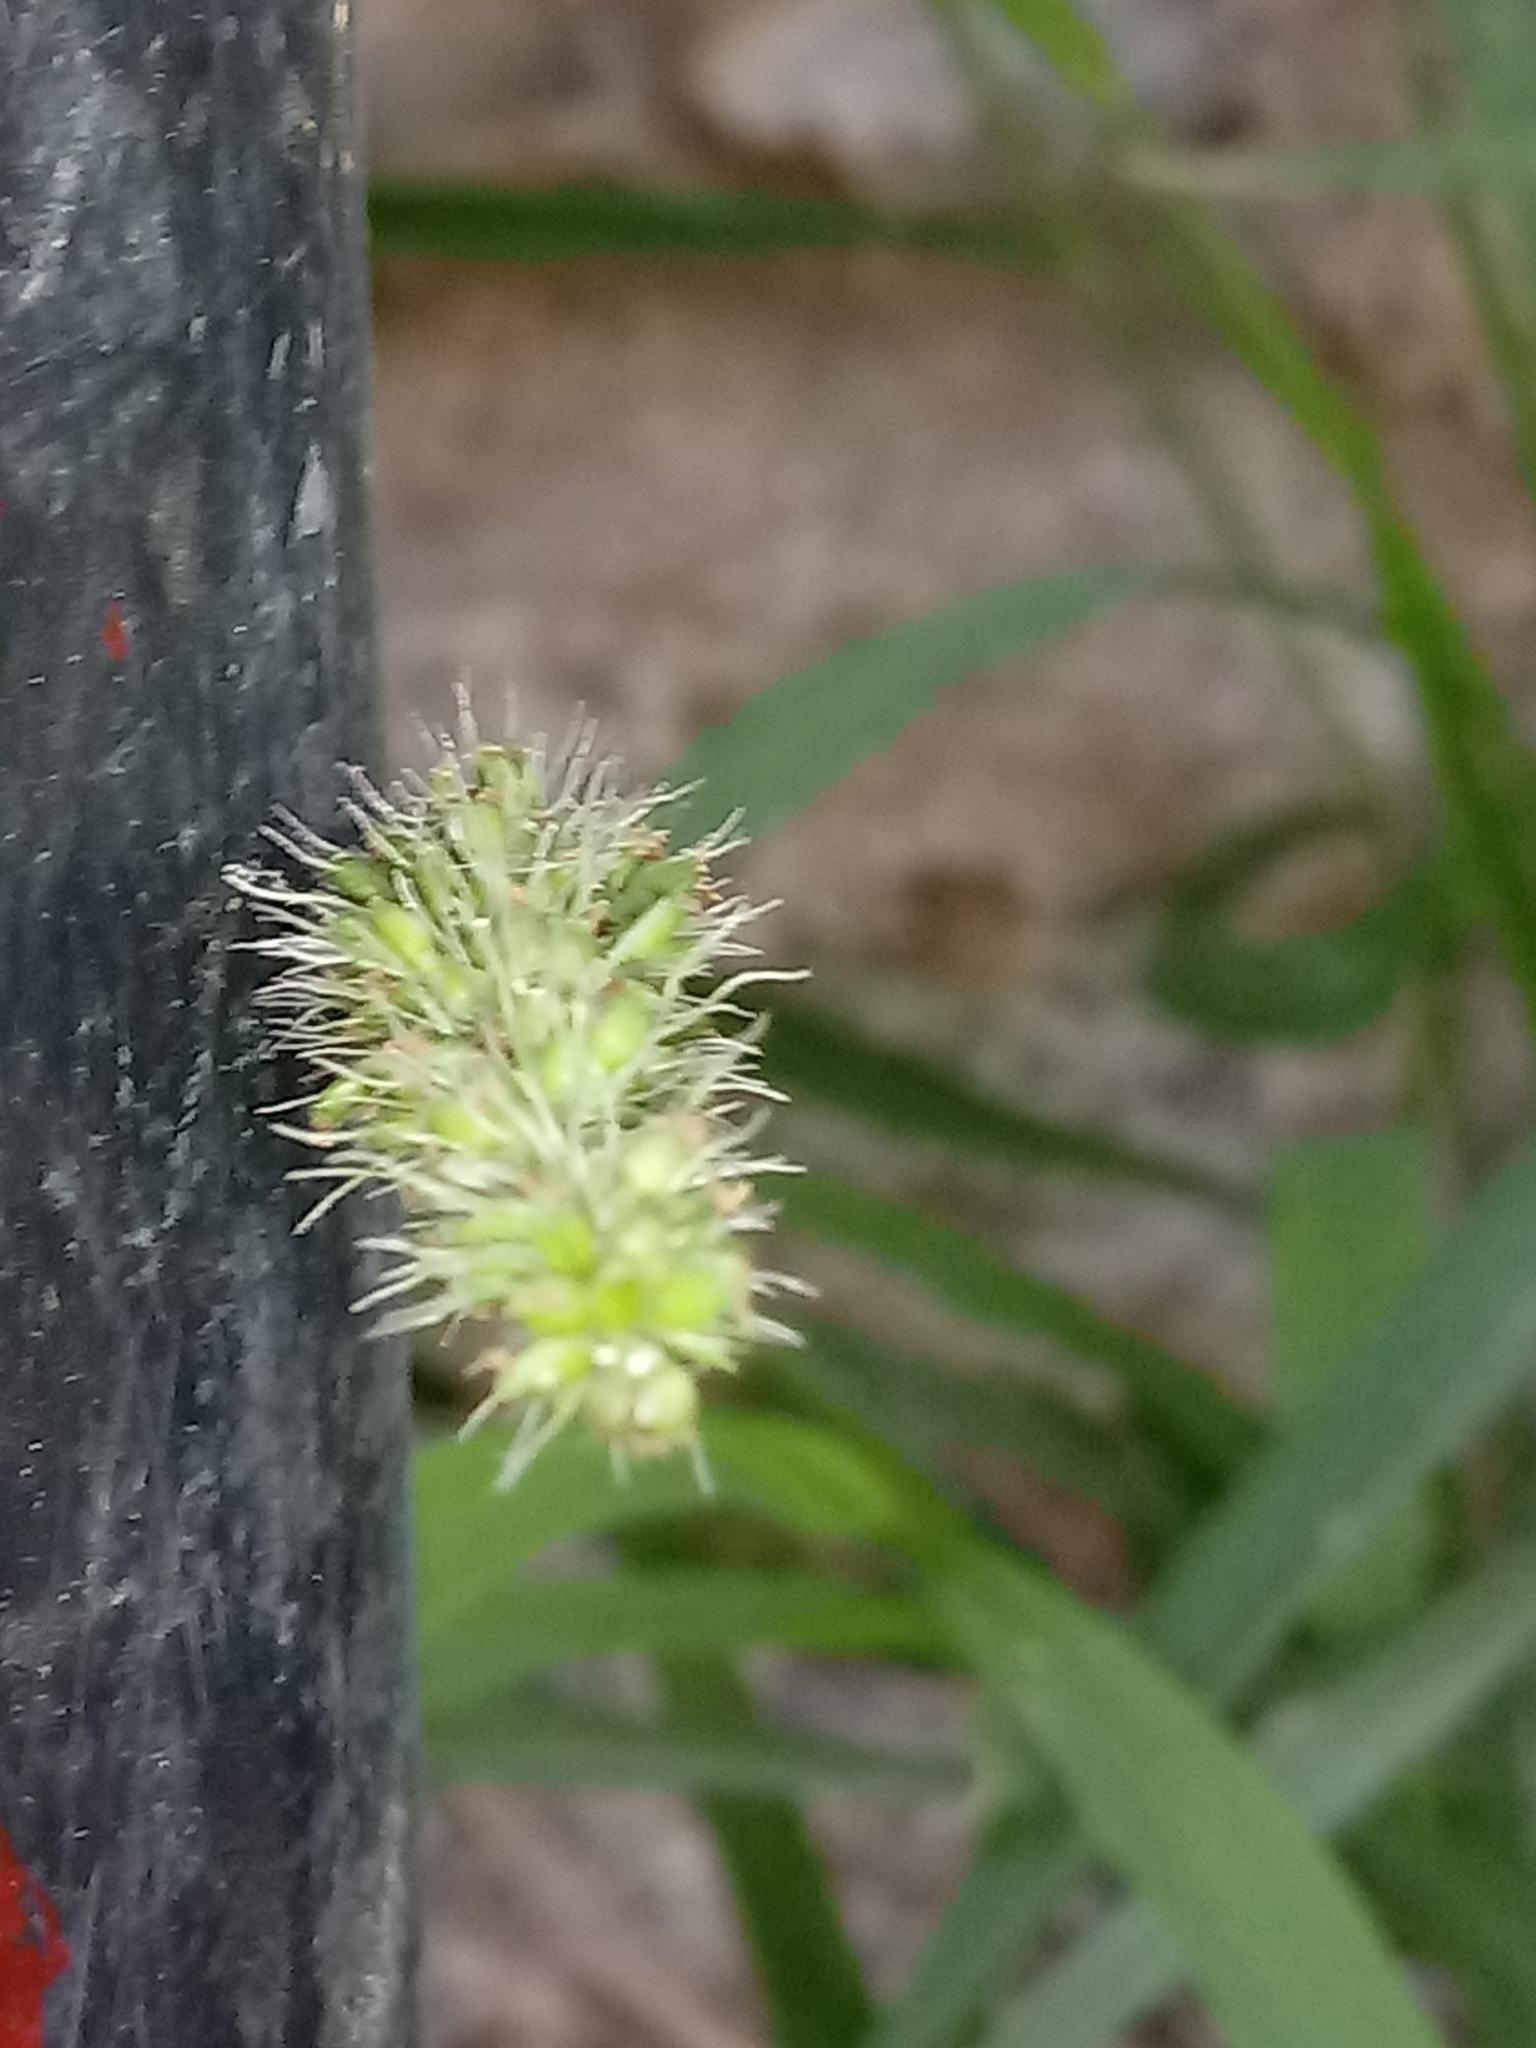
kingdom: Plantae
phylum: Tracheophyta
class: Liliopsida
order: Poales
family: Poaceae
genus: Setaria
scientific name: Setaria verticillata
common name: Hooked bristlegrass
